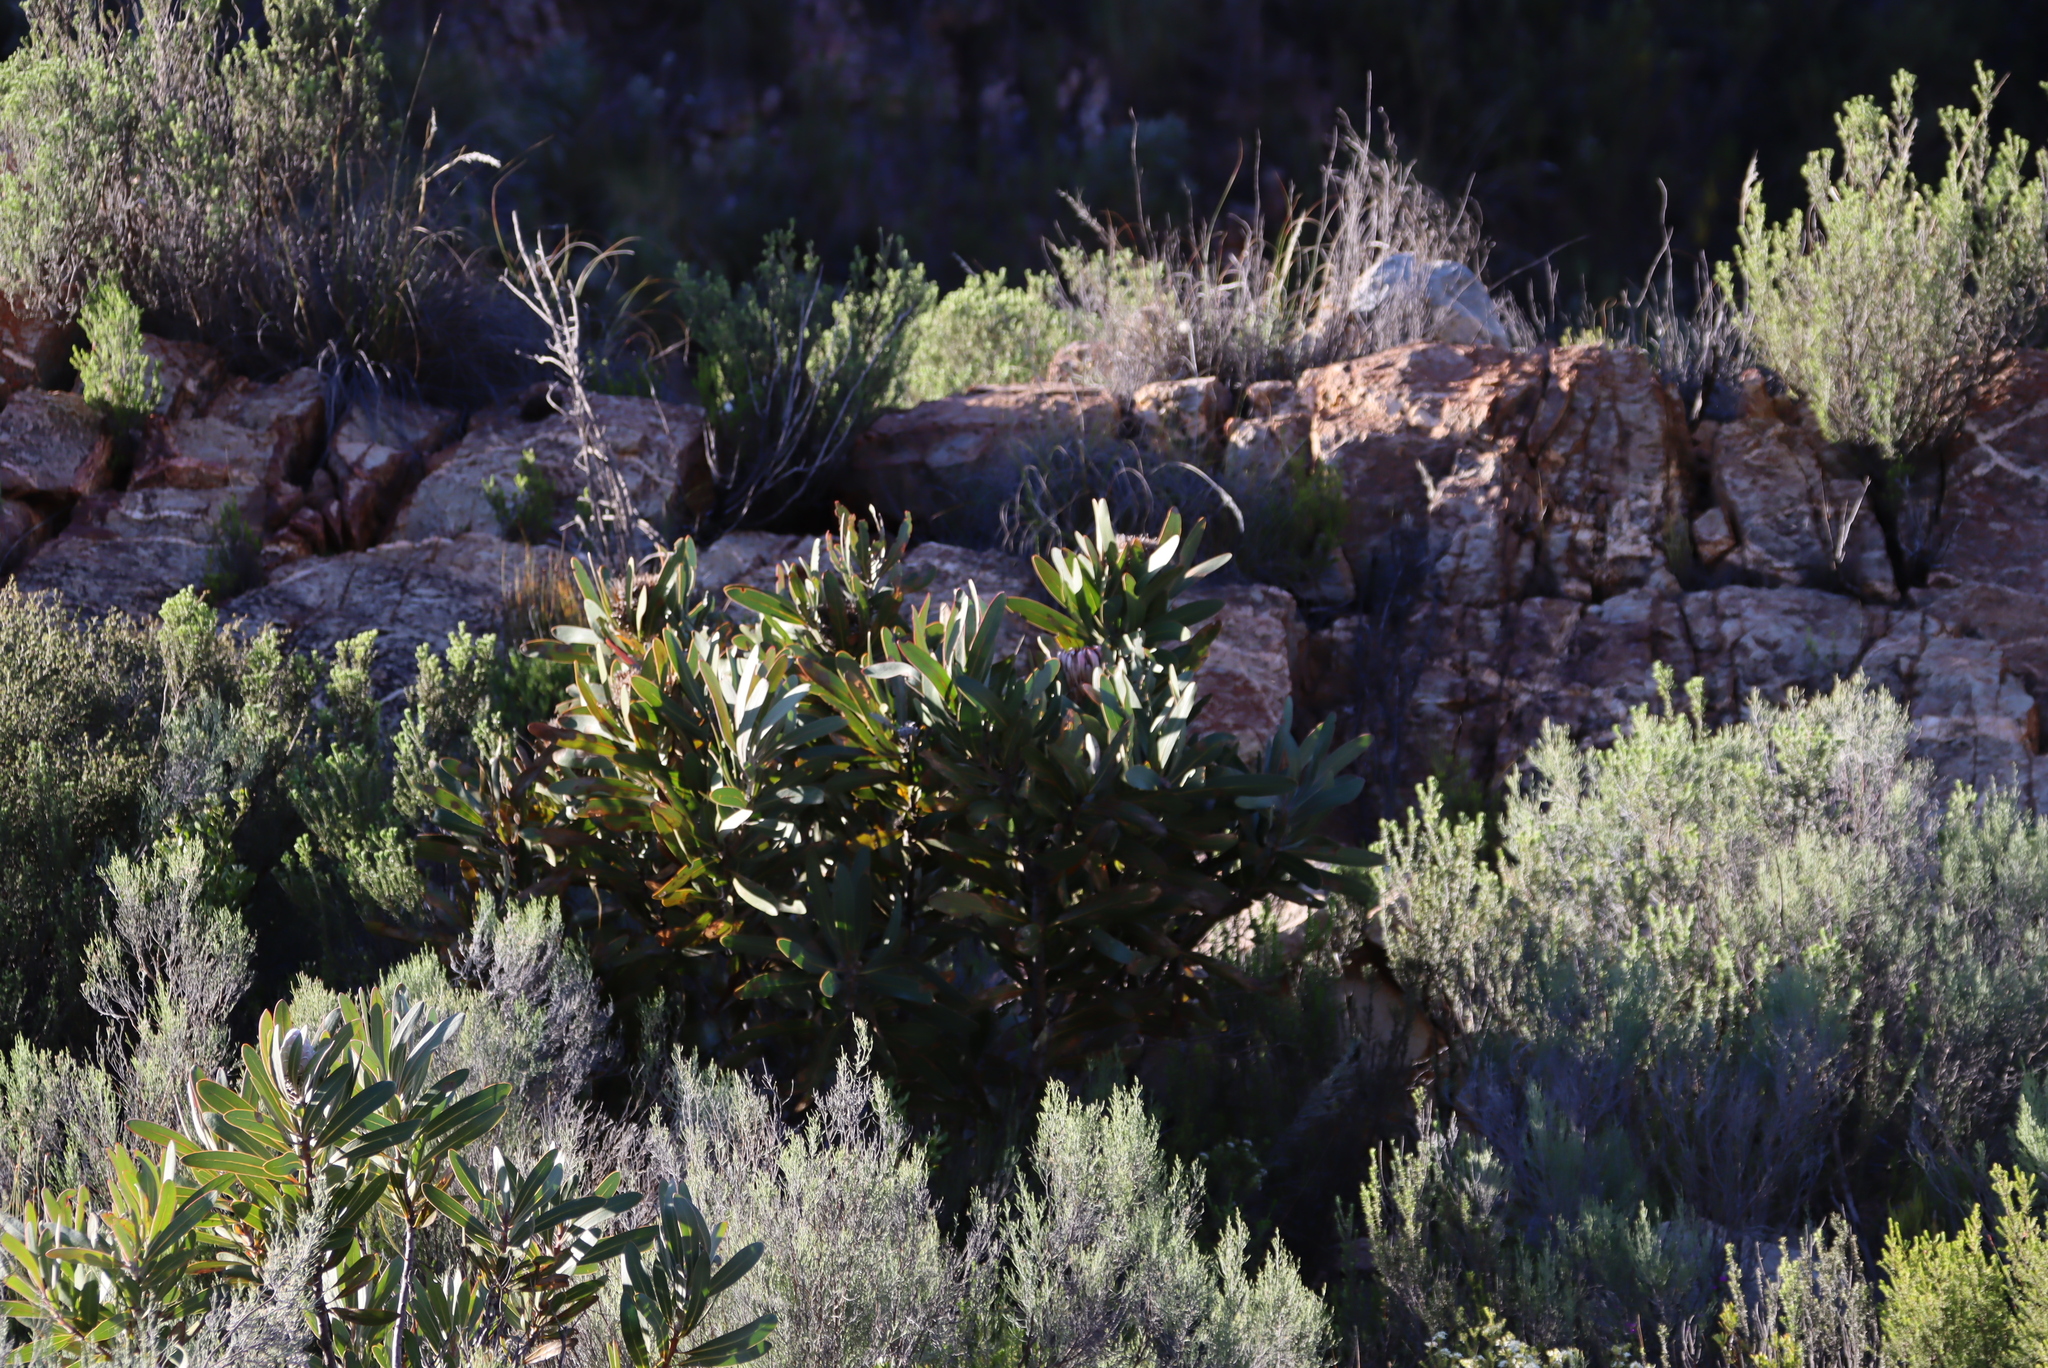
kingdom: Plantae
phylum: Tracheophyta
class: Magnoliopsida
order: Proteales
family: Proteaceae
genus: Protea
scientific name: Protea lorifolia
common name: Strap-leaved protea
